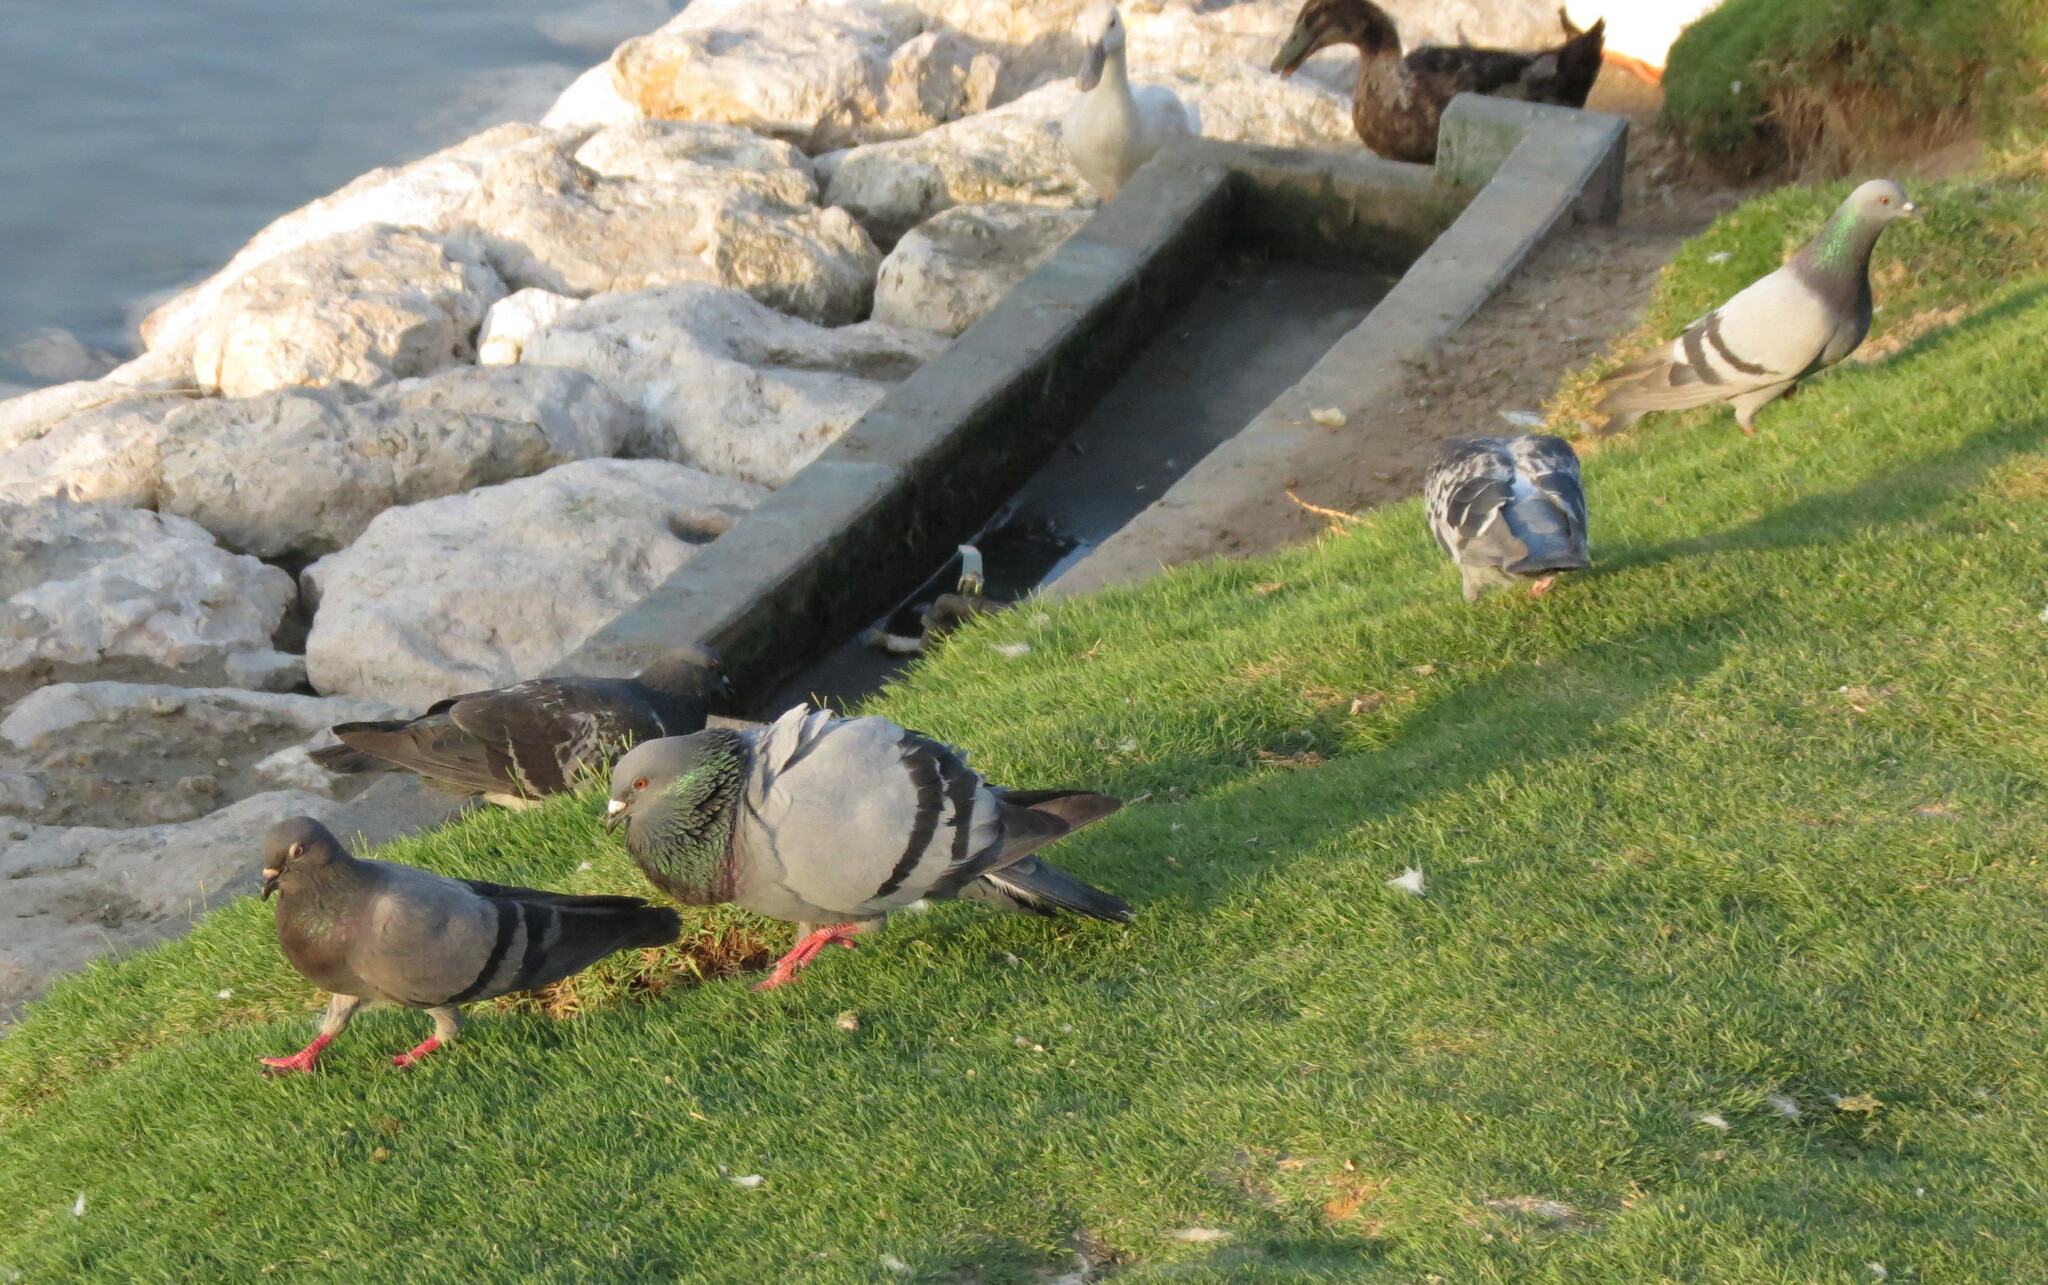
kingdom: Animalia
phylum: Chordata
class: Aves
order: Columbiformes
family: Columbidae
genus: Columba
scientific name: Columba livia
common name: Rock pigeon
